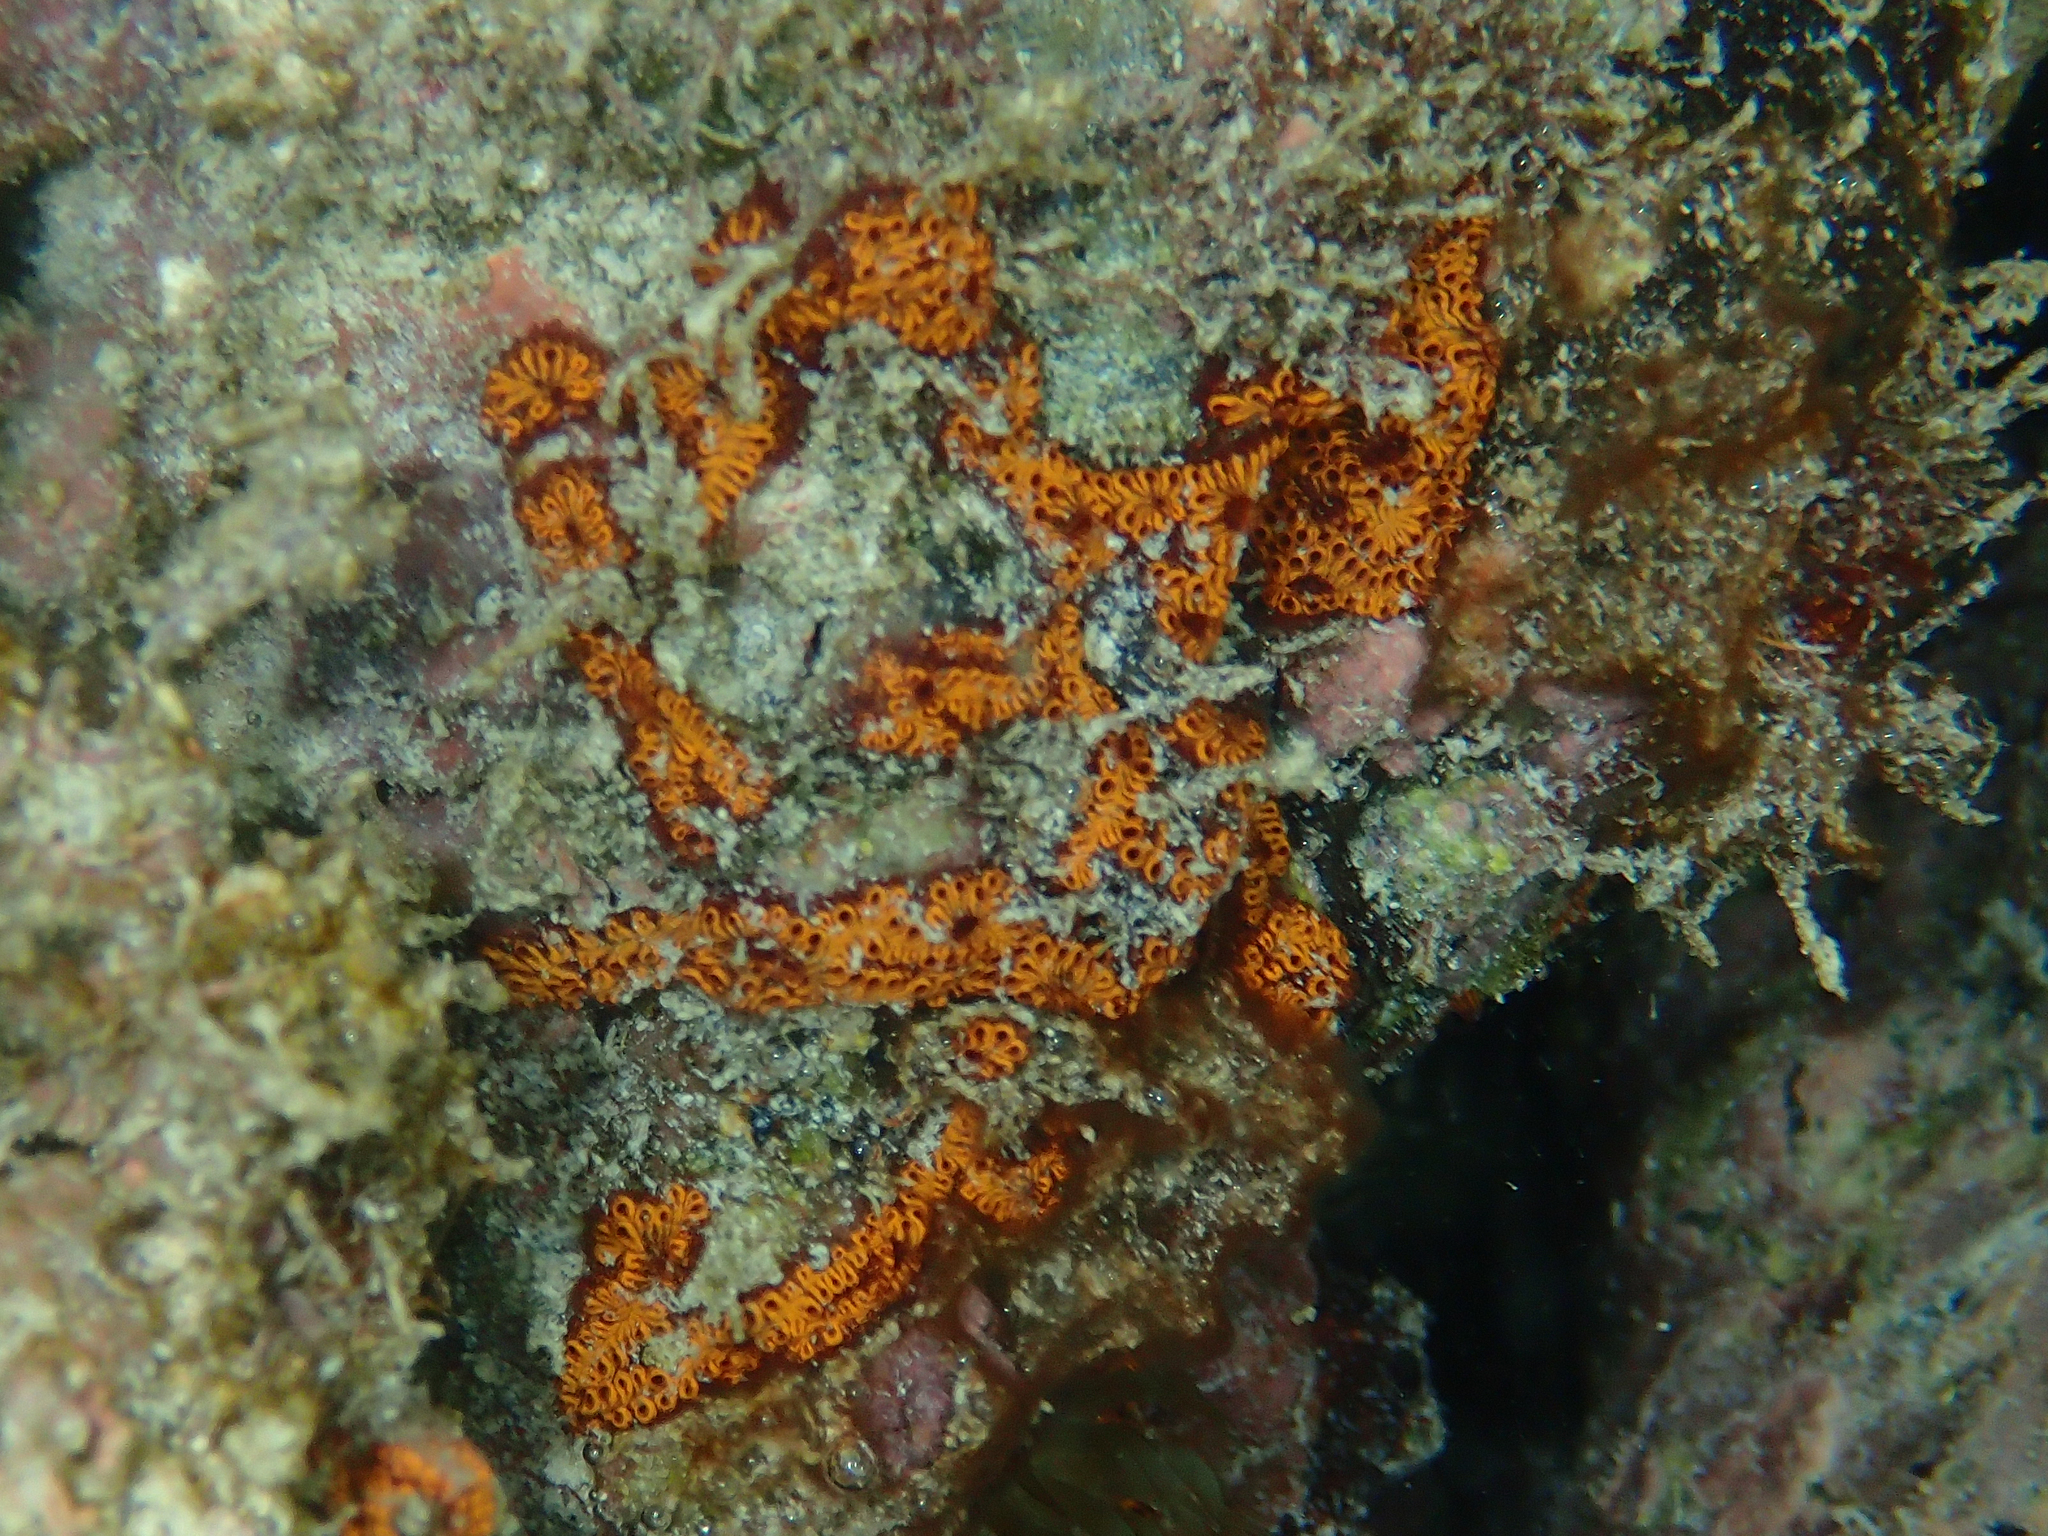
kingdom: Animalia
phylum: Chordata
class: Ascidiacea
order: Stolidobranchia
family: Styelidae
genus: Botrylloides
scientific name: Botrylloides niger
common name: Black synascidia
